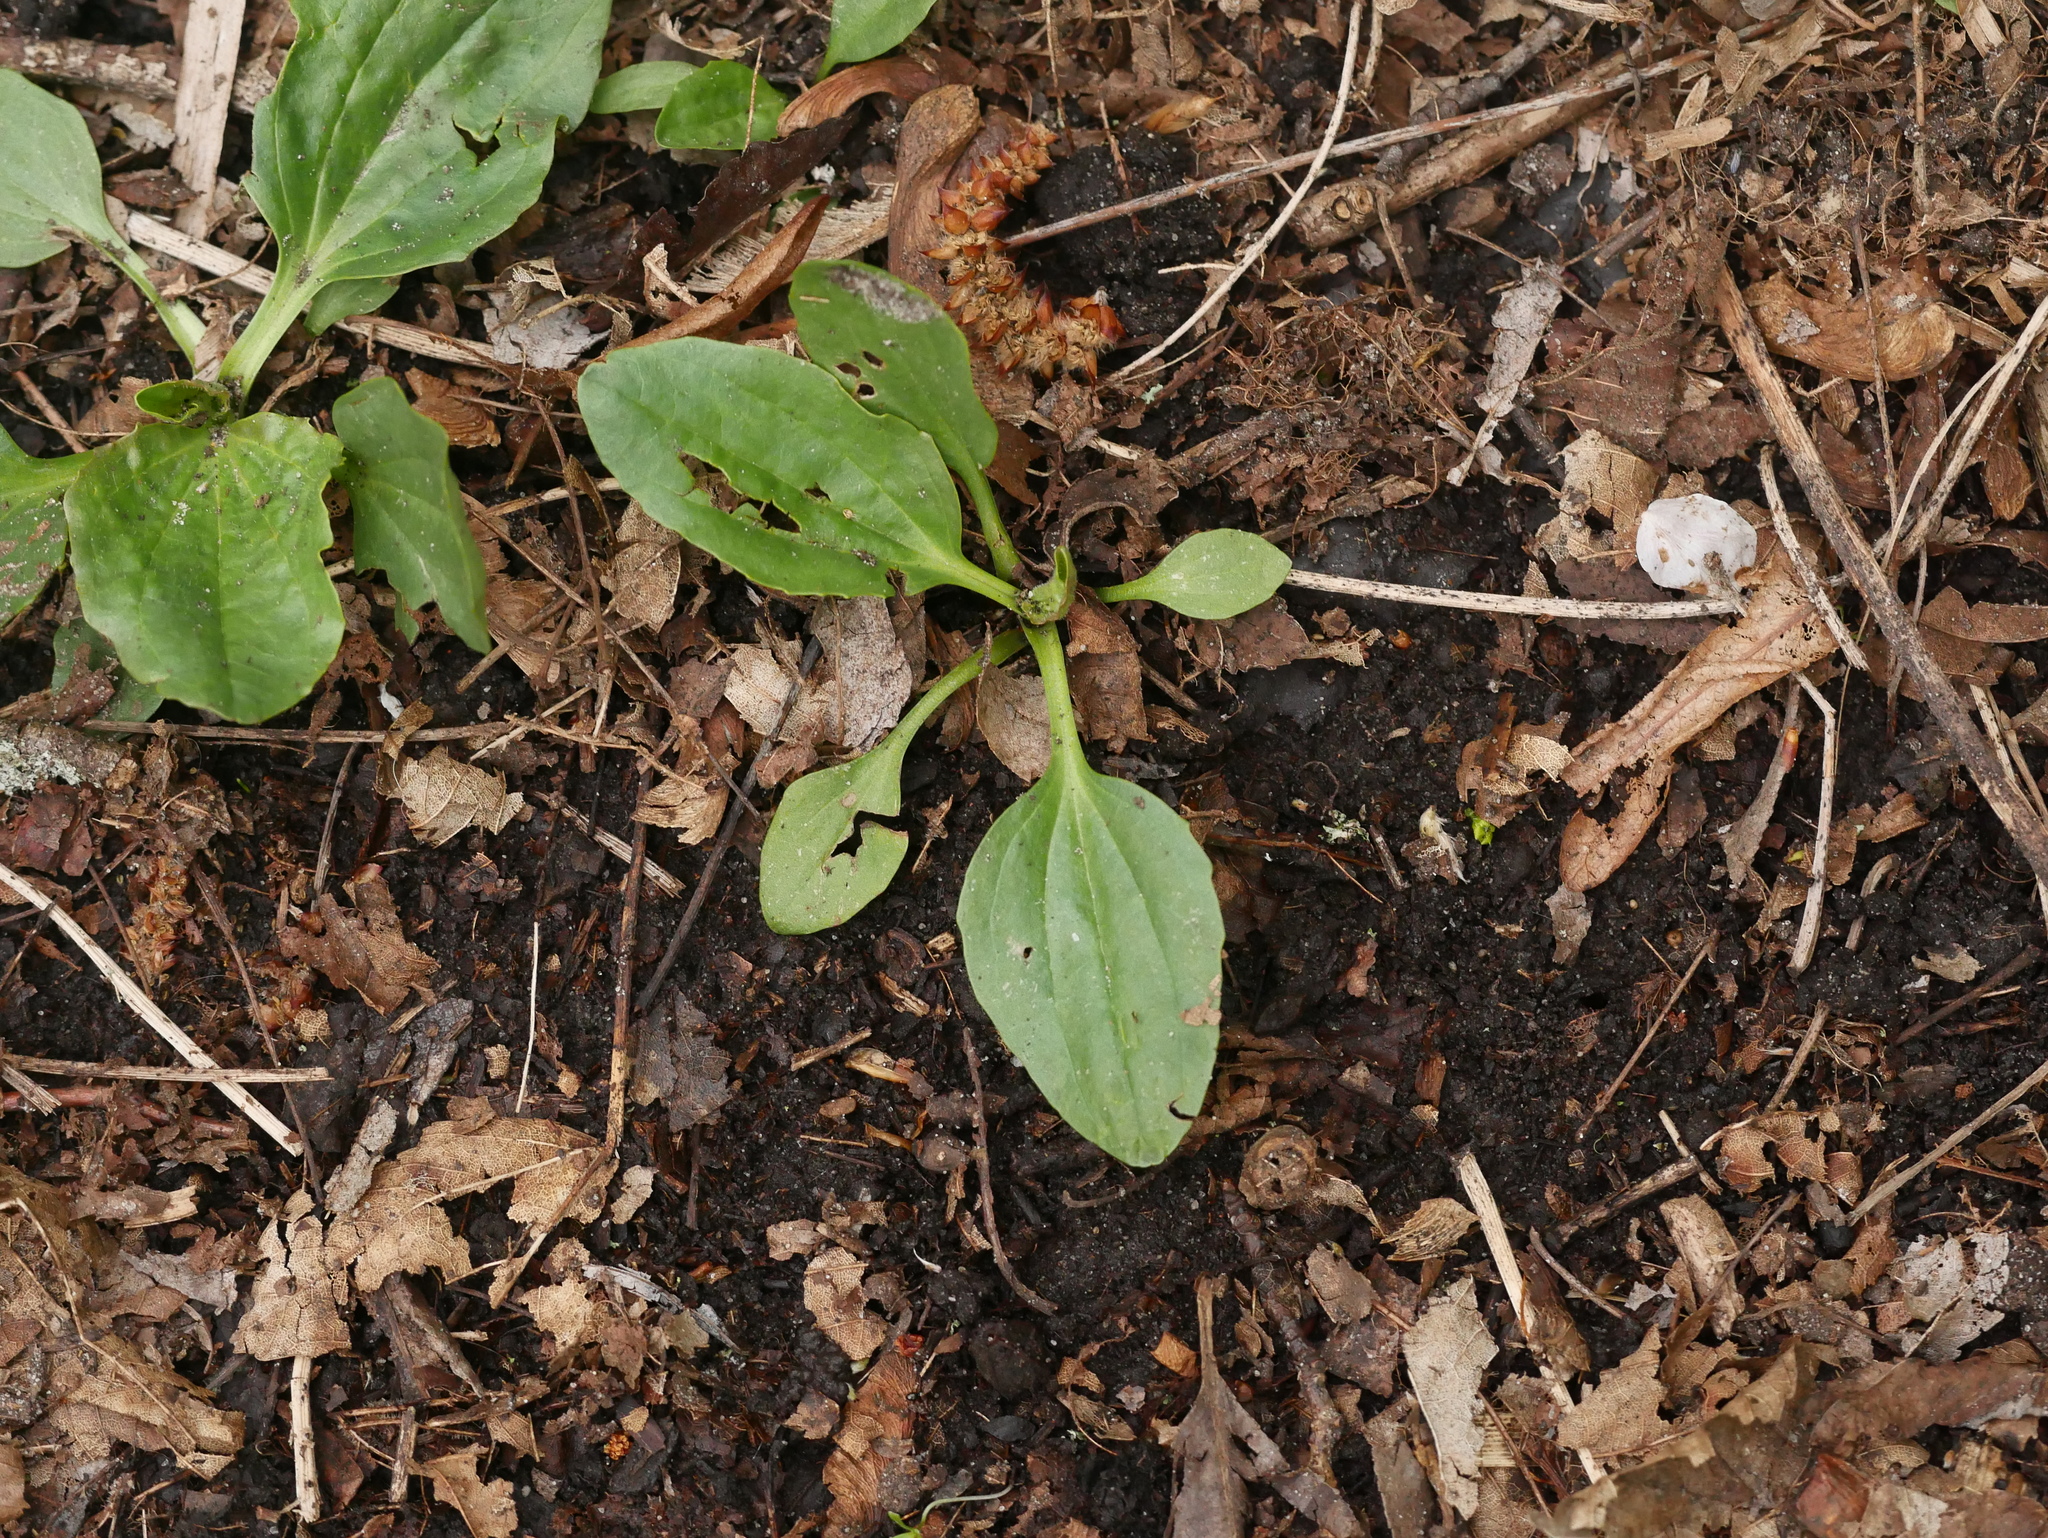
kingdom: Plantae
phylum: Tracheophyta
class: Magnoliopsida
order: Lamiales
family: Plantaginaceae
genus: Plantago
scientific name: Plantago major
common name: Common plantain
